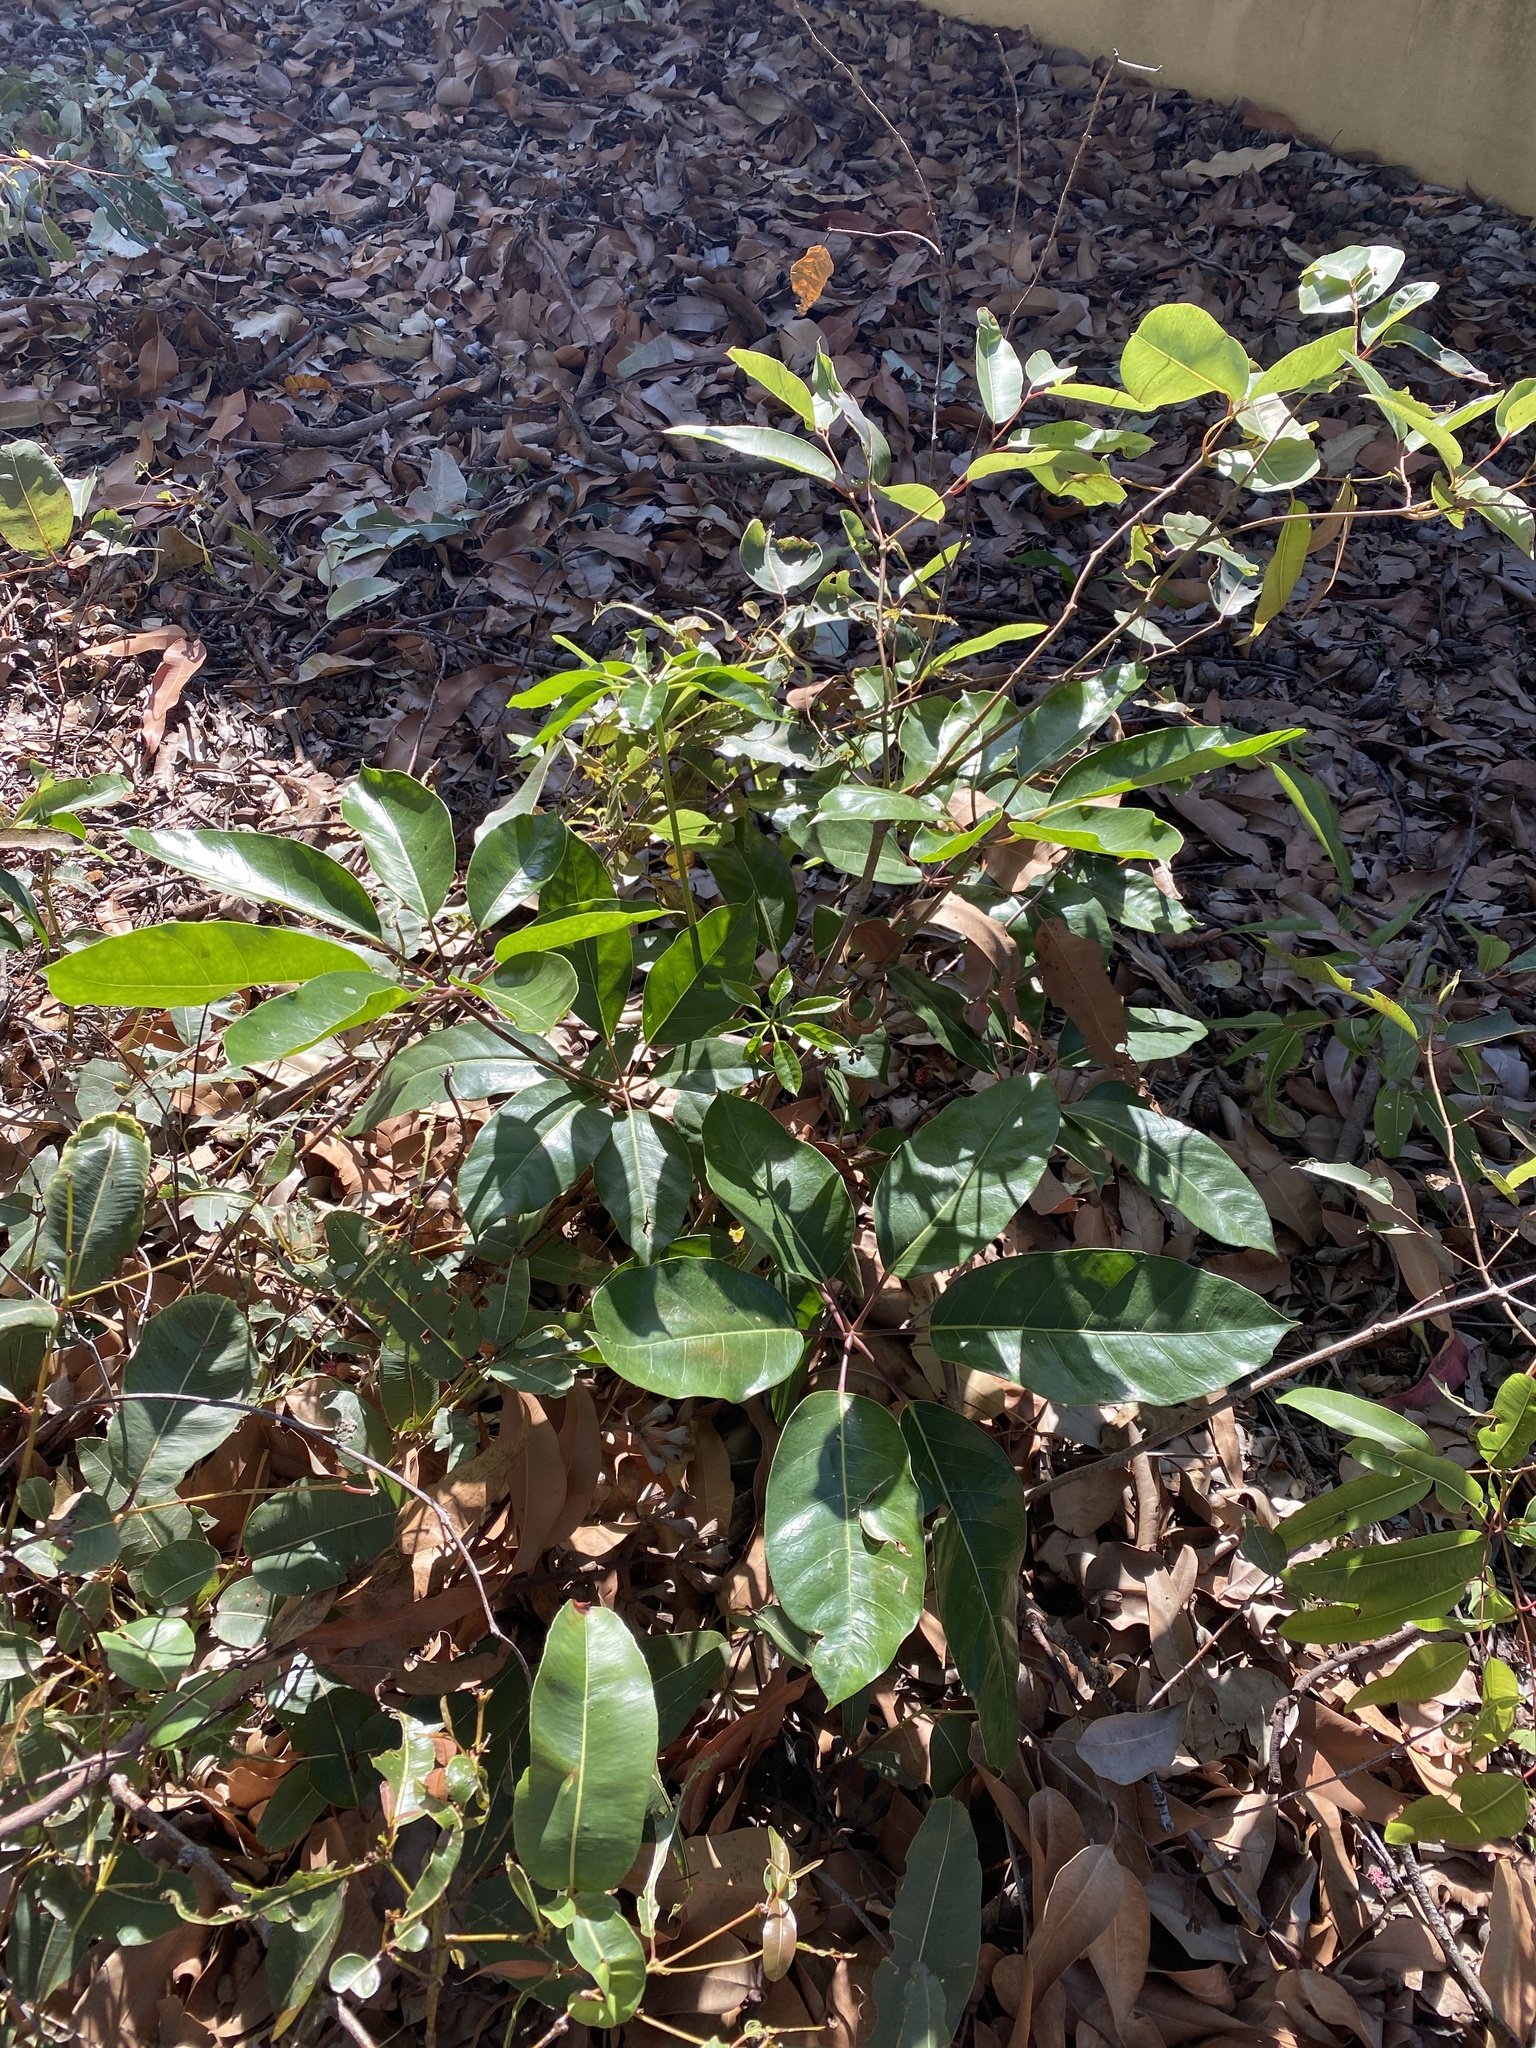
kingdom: Plantae
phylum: Tracheophyta
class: Magnoliopsida
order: Apiales
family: Araliaceae
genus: Heptapleurum
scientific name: Heptapleurum actinophyllum
